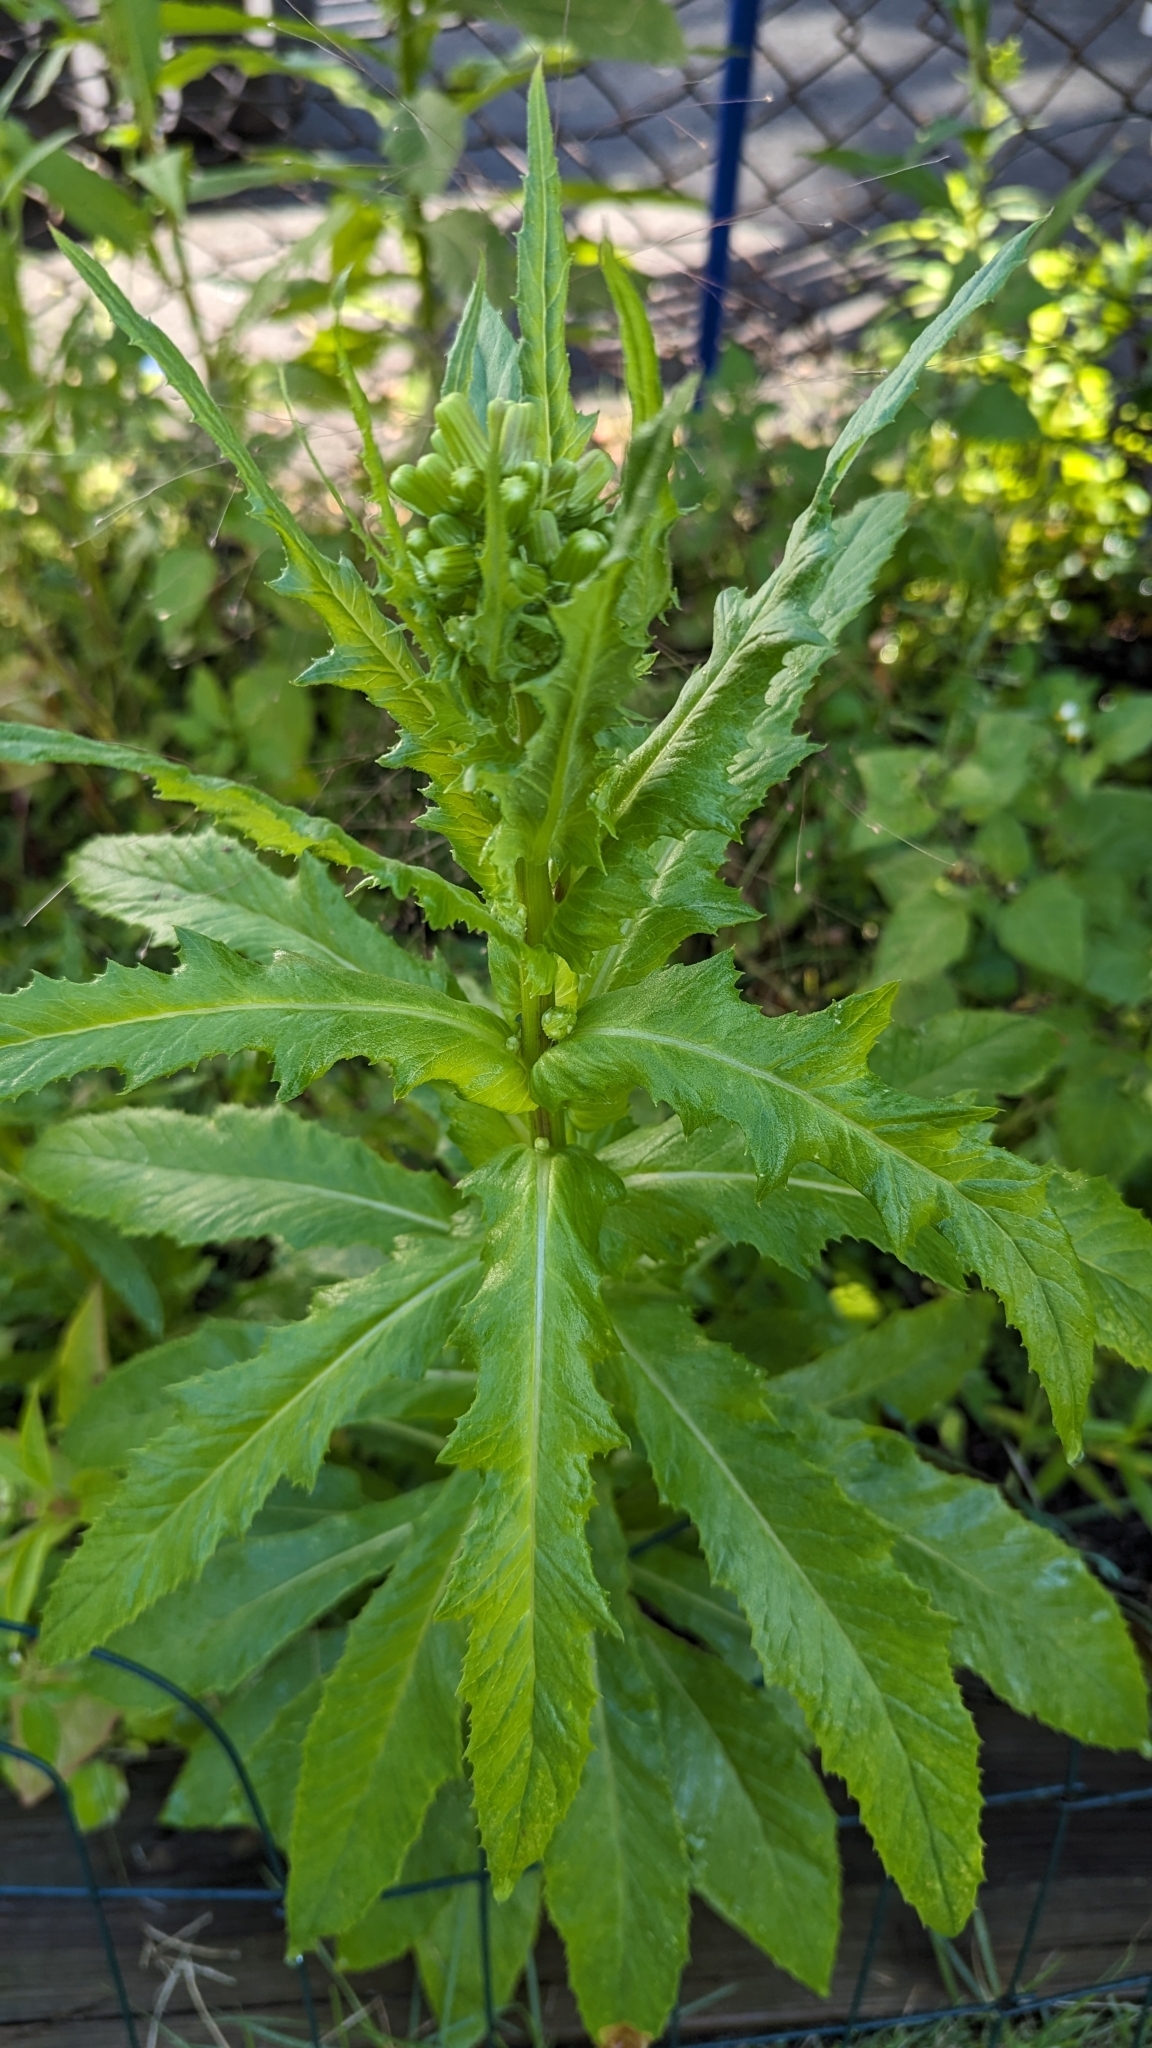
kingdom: Plantae
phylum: Tracheophyta
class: Magnoliopsida
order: Asterales
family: Asteraceae
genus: Erechtites
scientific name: Erechtites hieraciifolius
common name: American burnweed
